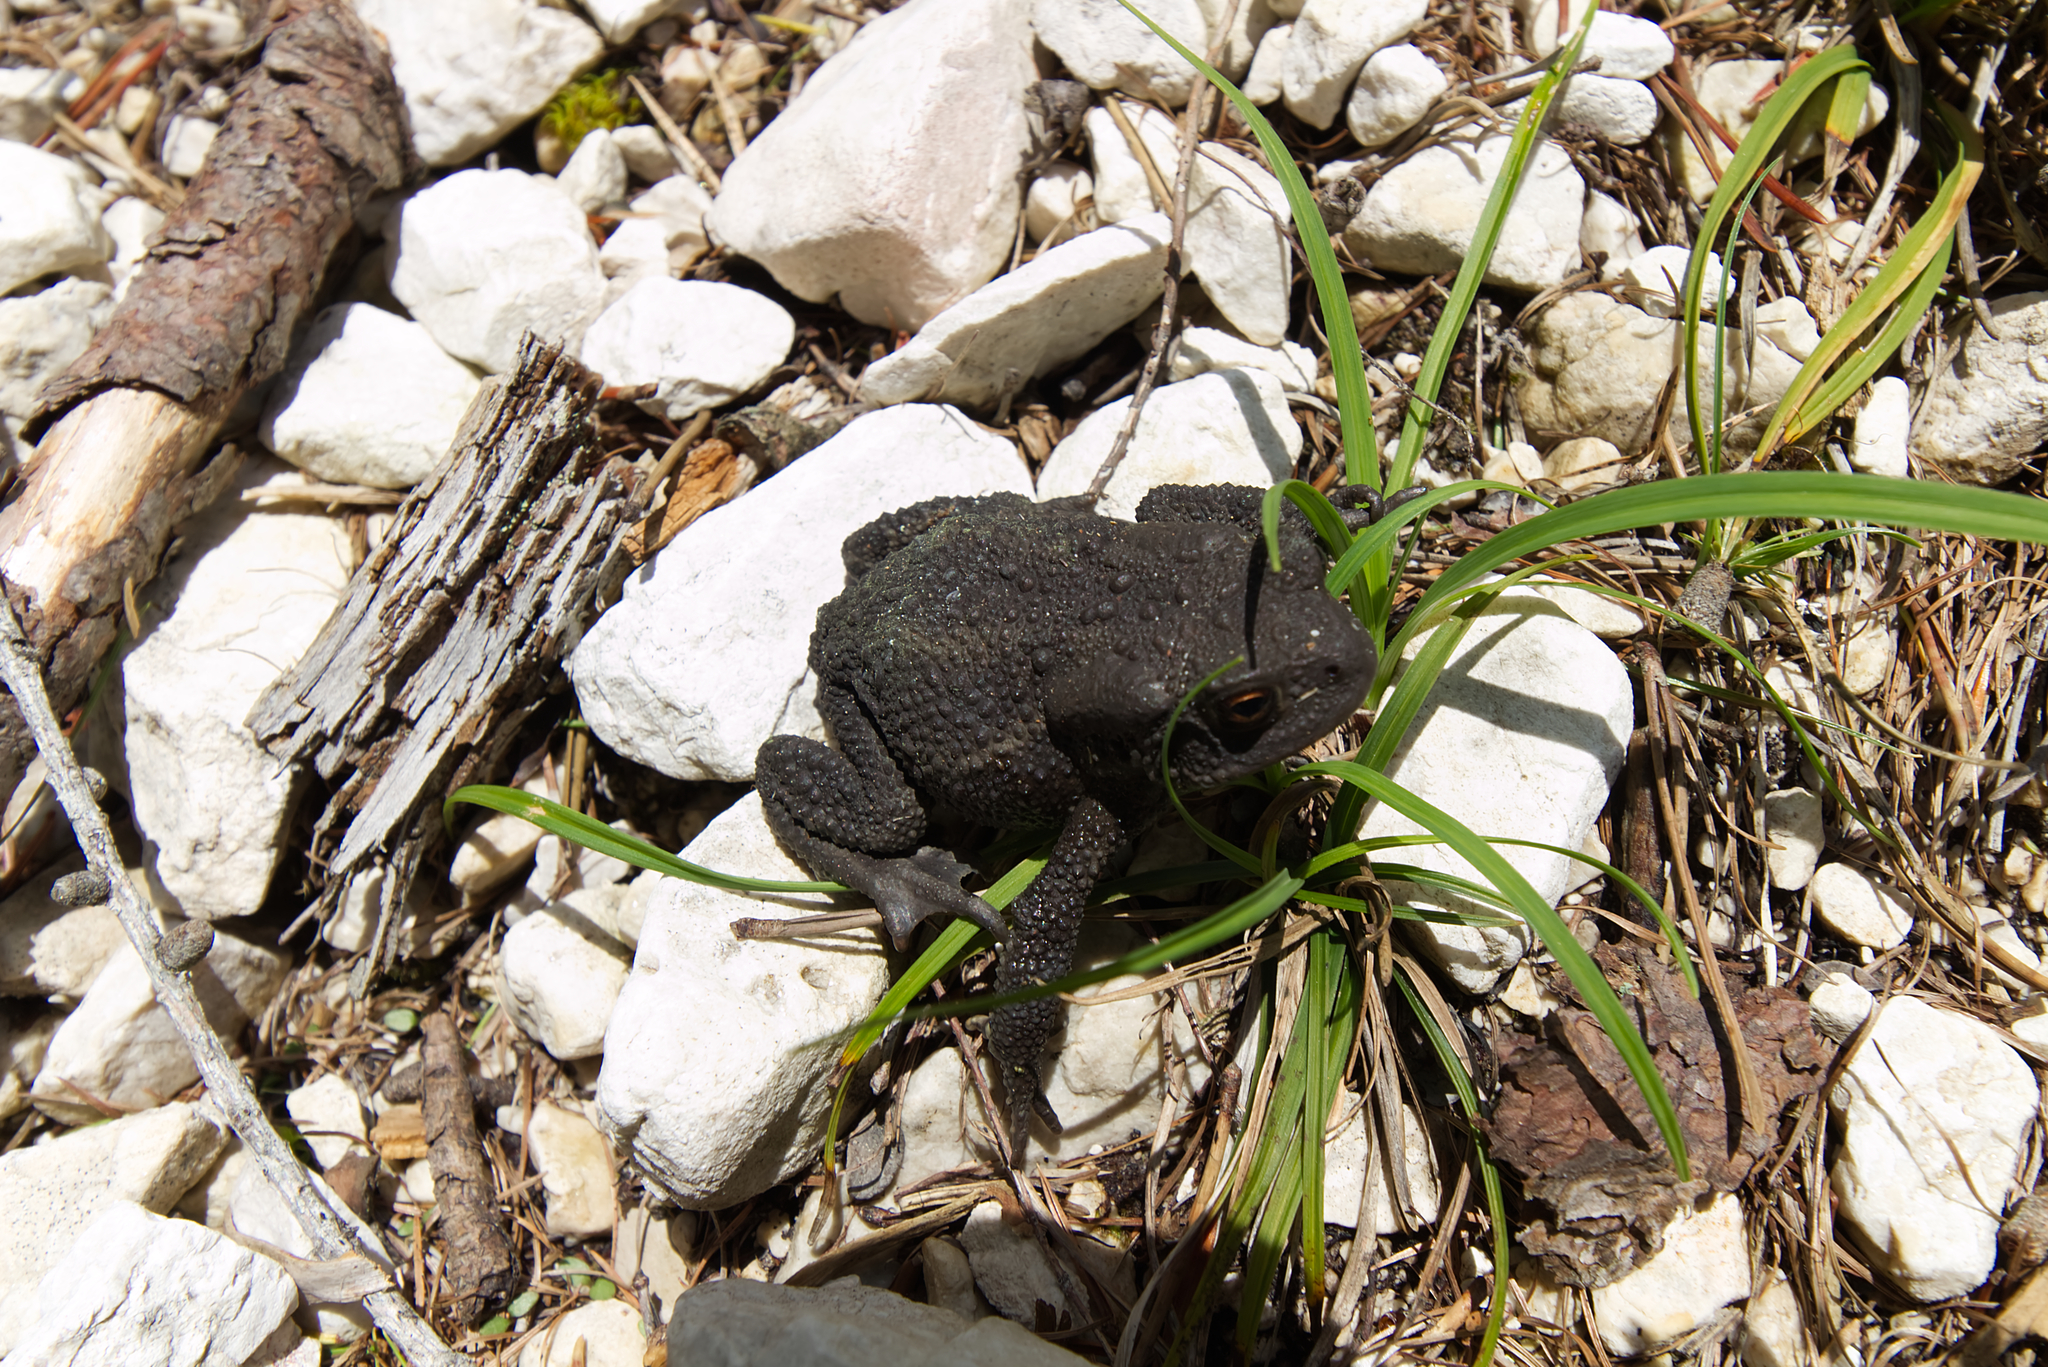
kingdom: Animalia
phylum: Chordata
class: Amphibia
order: Anura
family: Bufonidae
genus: Bufo
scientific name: Bufo bufo
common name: Common toad
